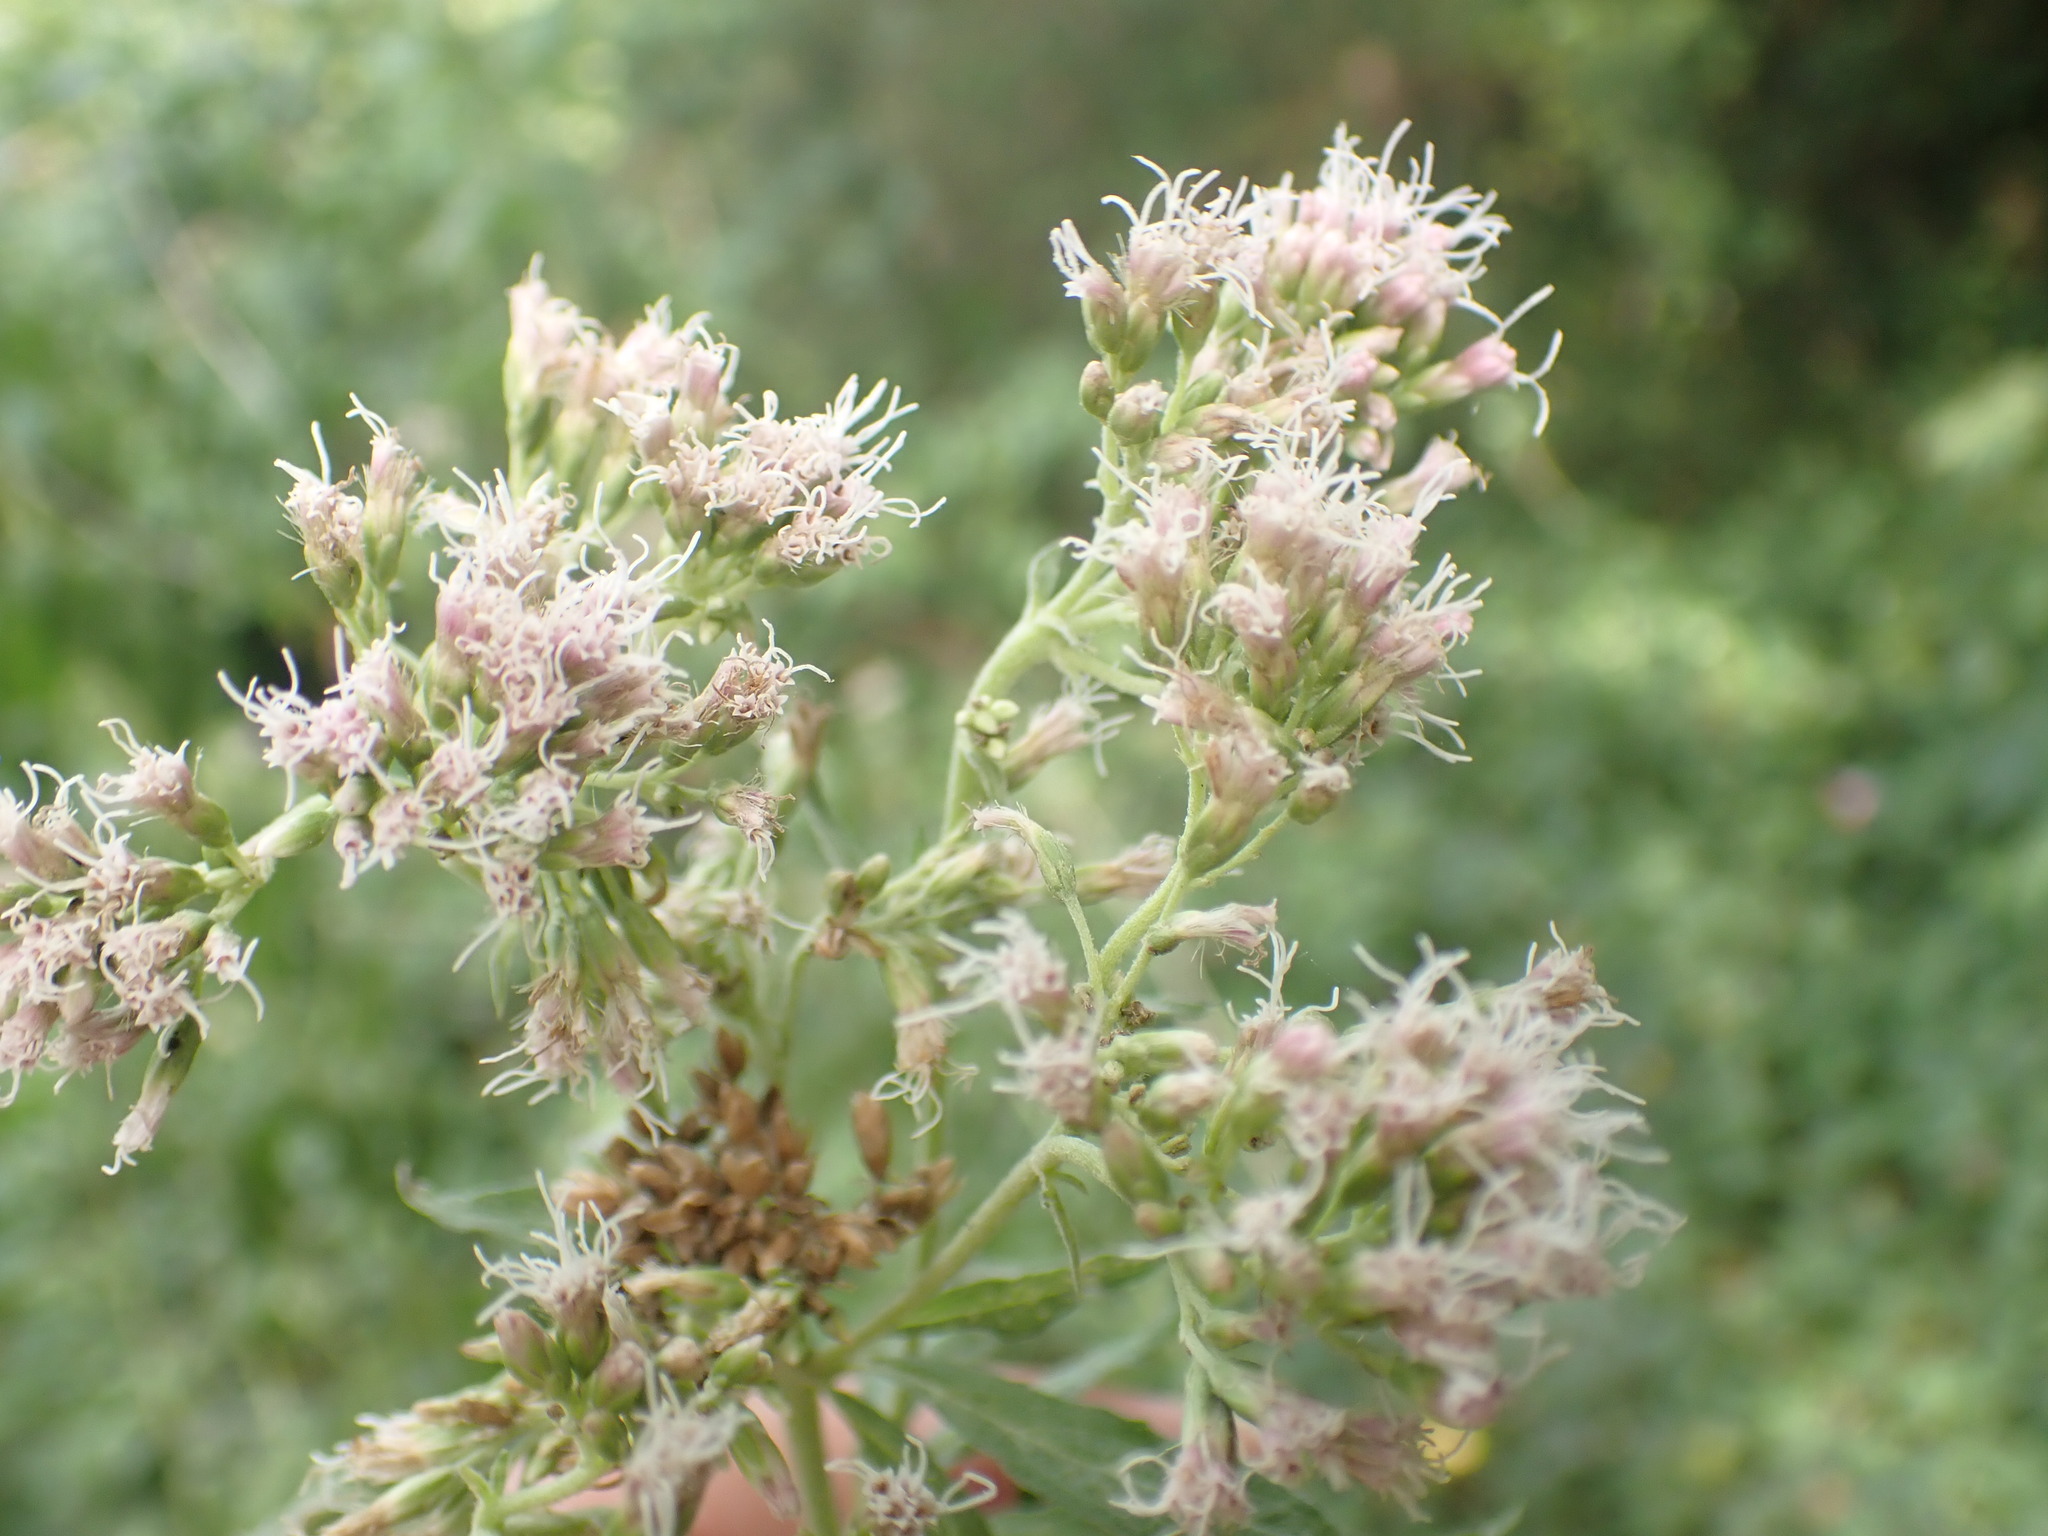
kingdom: Plantae
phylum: Tracheophyta
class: Magnoliopsida
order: Asterales
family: Asteraceae
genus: Eupatorium
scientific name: Eupatorium cannabinum
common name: Hemp-agrimony
